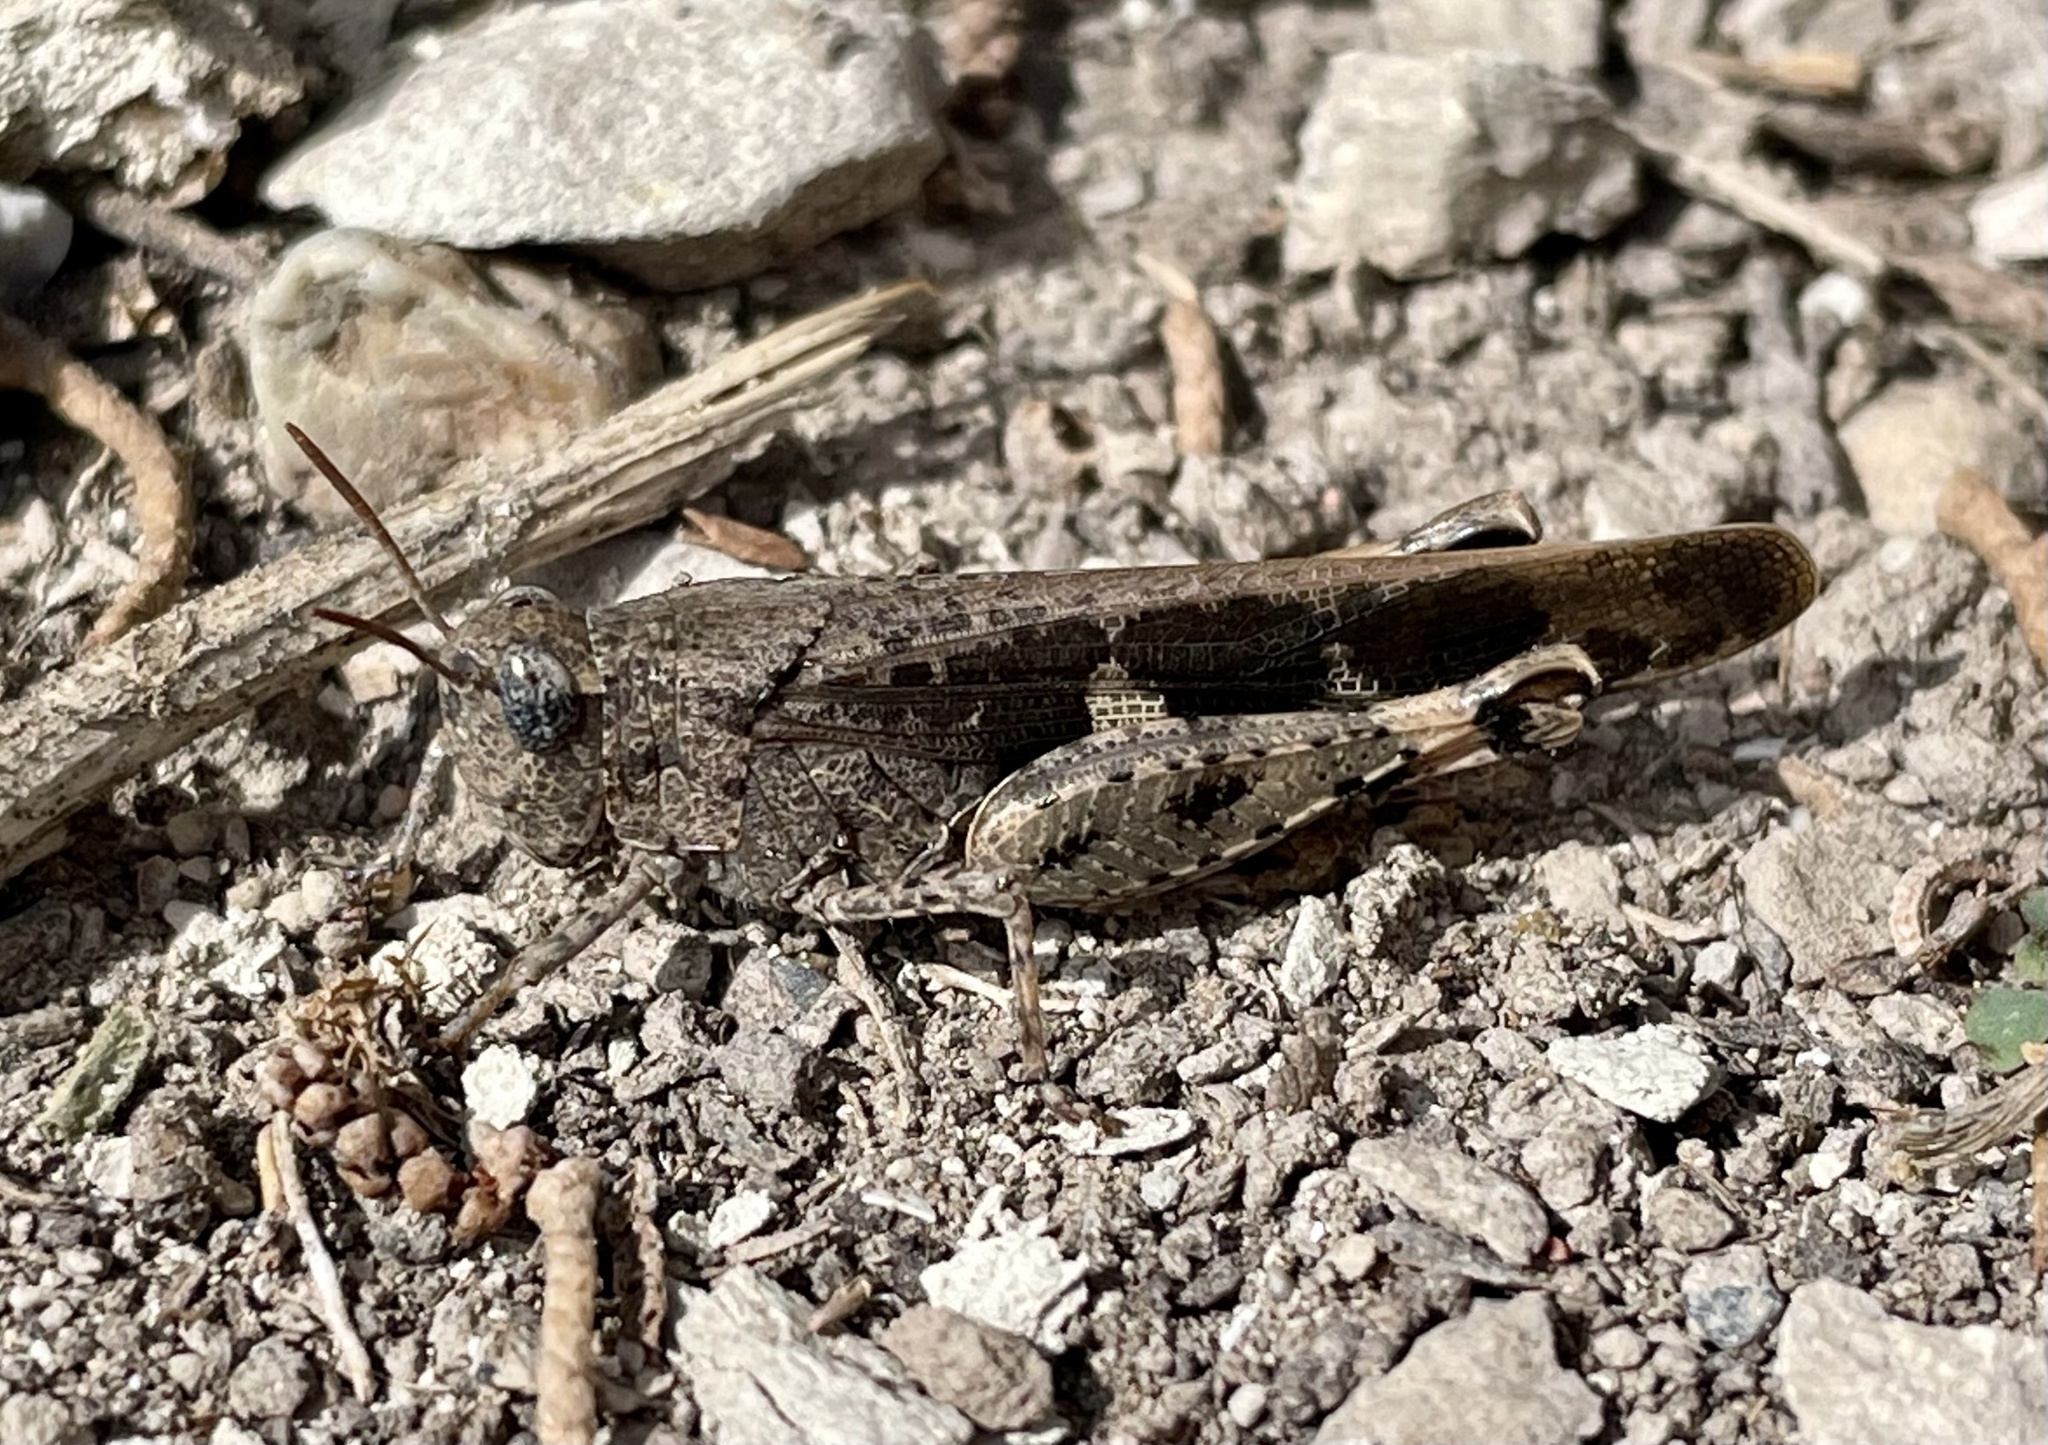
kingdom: Animalia
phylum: Arthropoda
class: Insecta
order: Orthoptera
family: Acrididae
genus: Aiolopus
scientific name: Aiolopus strepens
